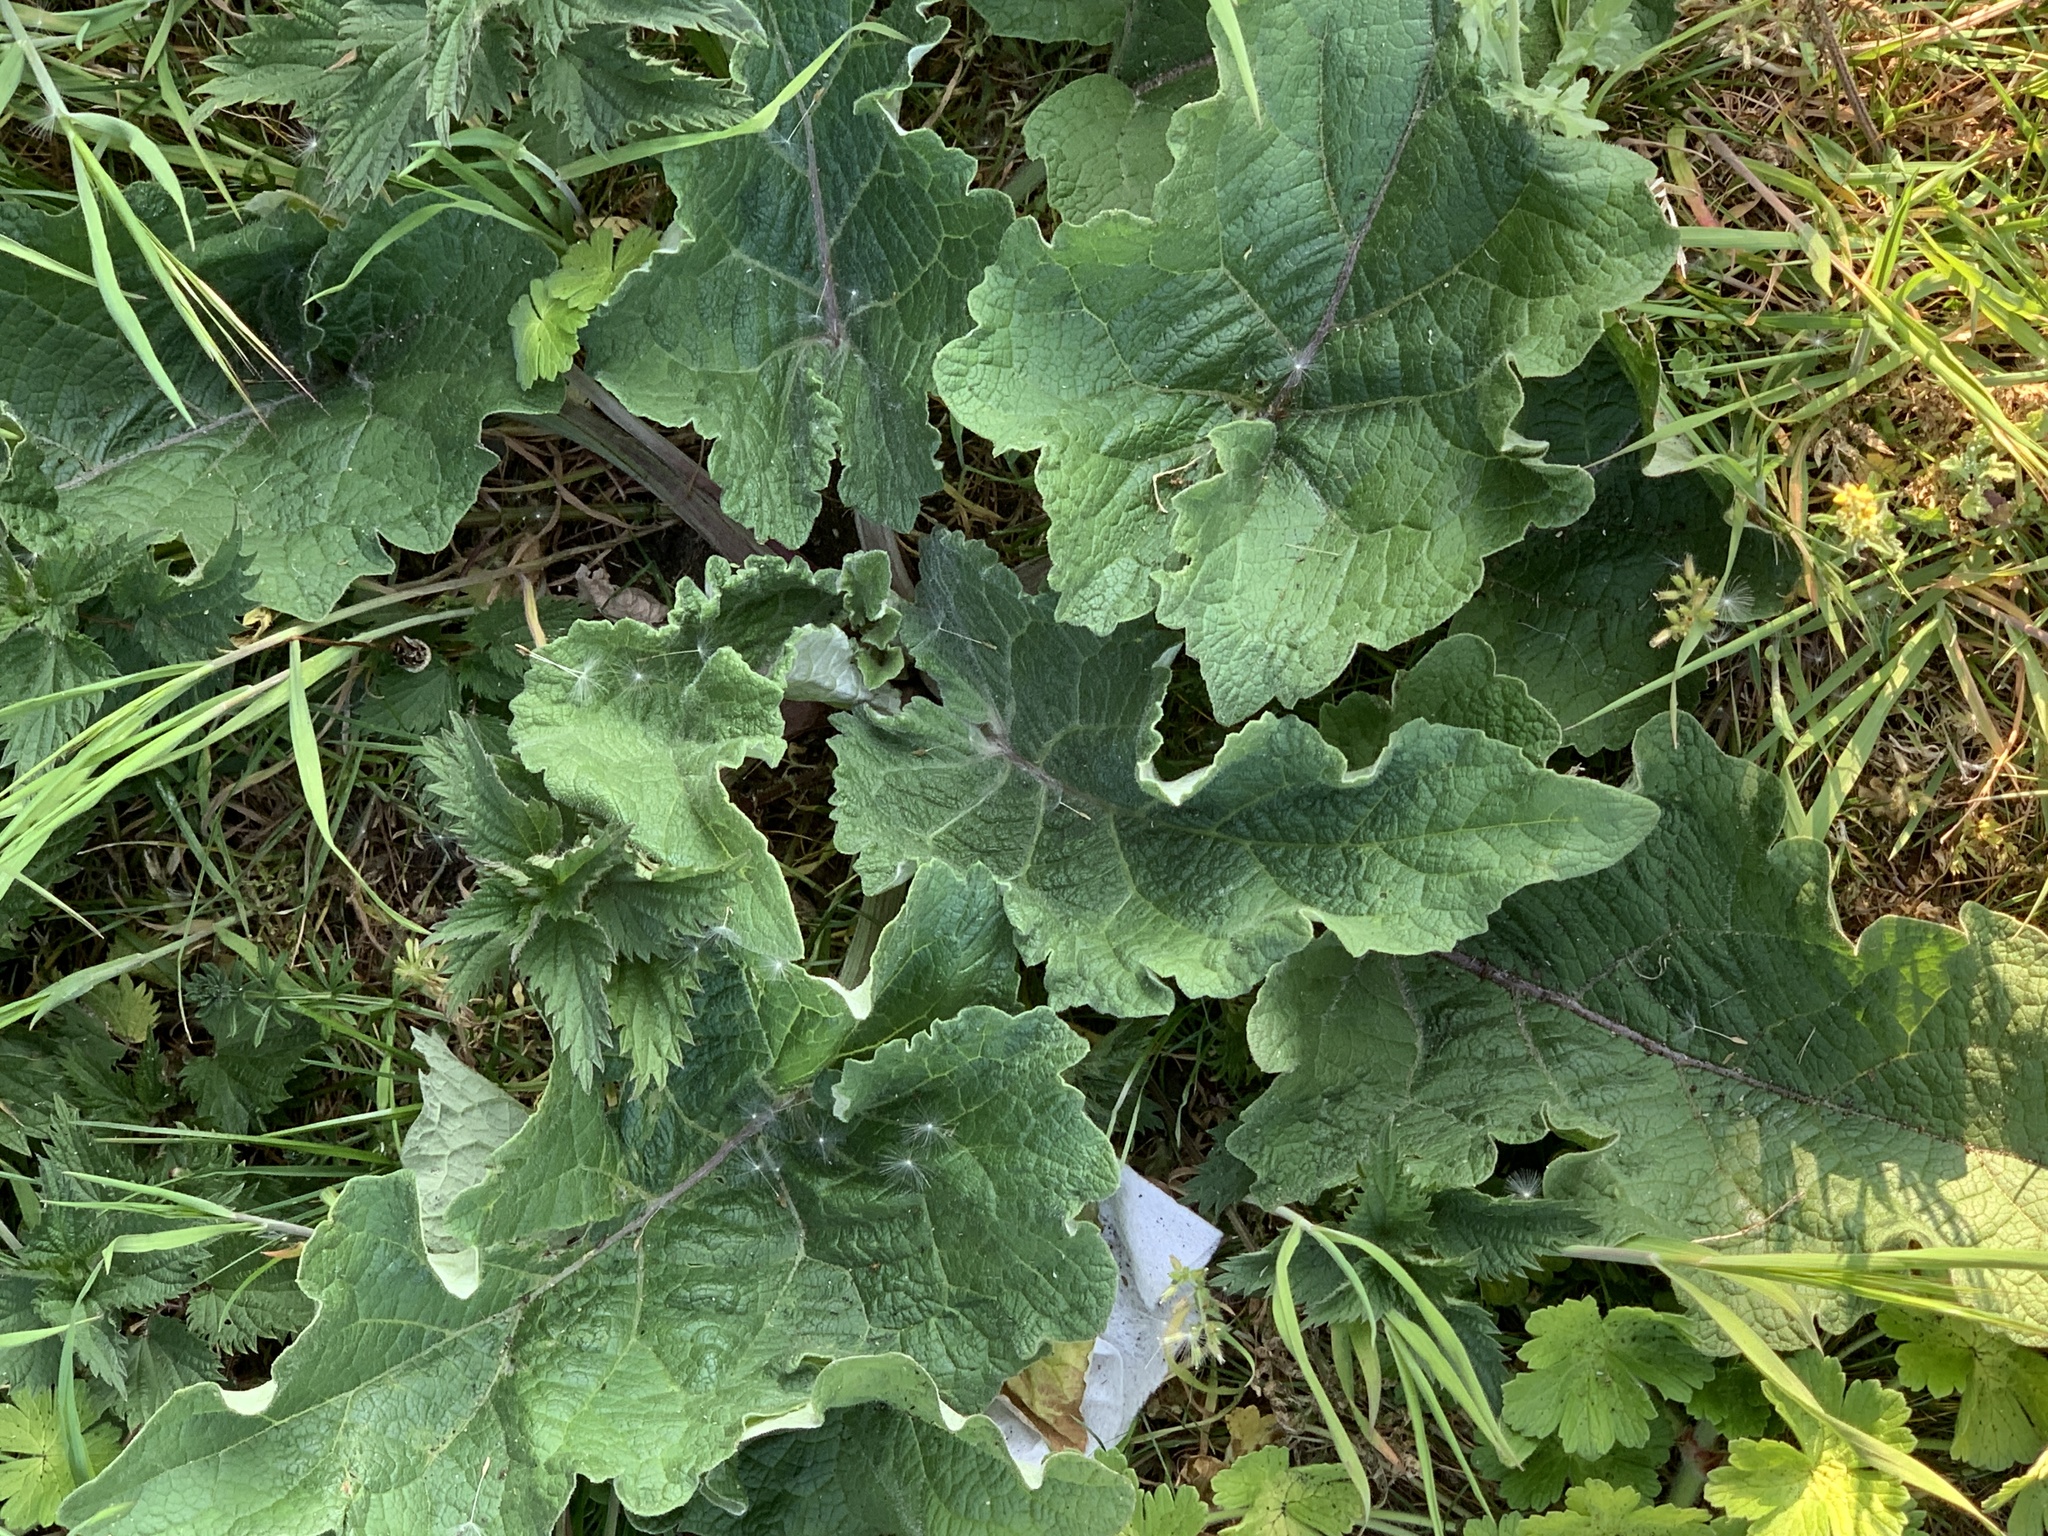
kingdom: Plantae
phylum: Tracheophyta
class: Magnoliopsida
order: Asterales
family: Asteraceae
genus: Arctium
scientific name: Arctium minus
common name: Lesser burdock
